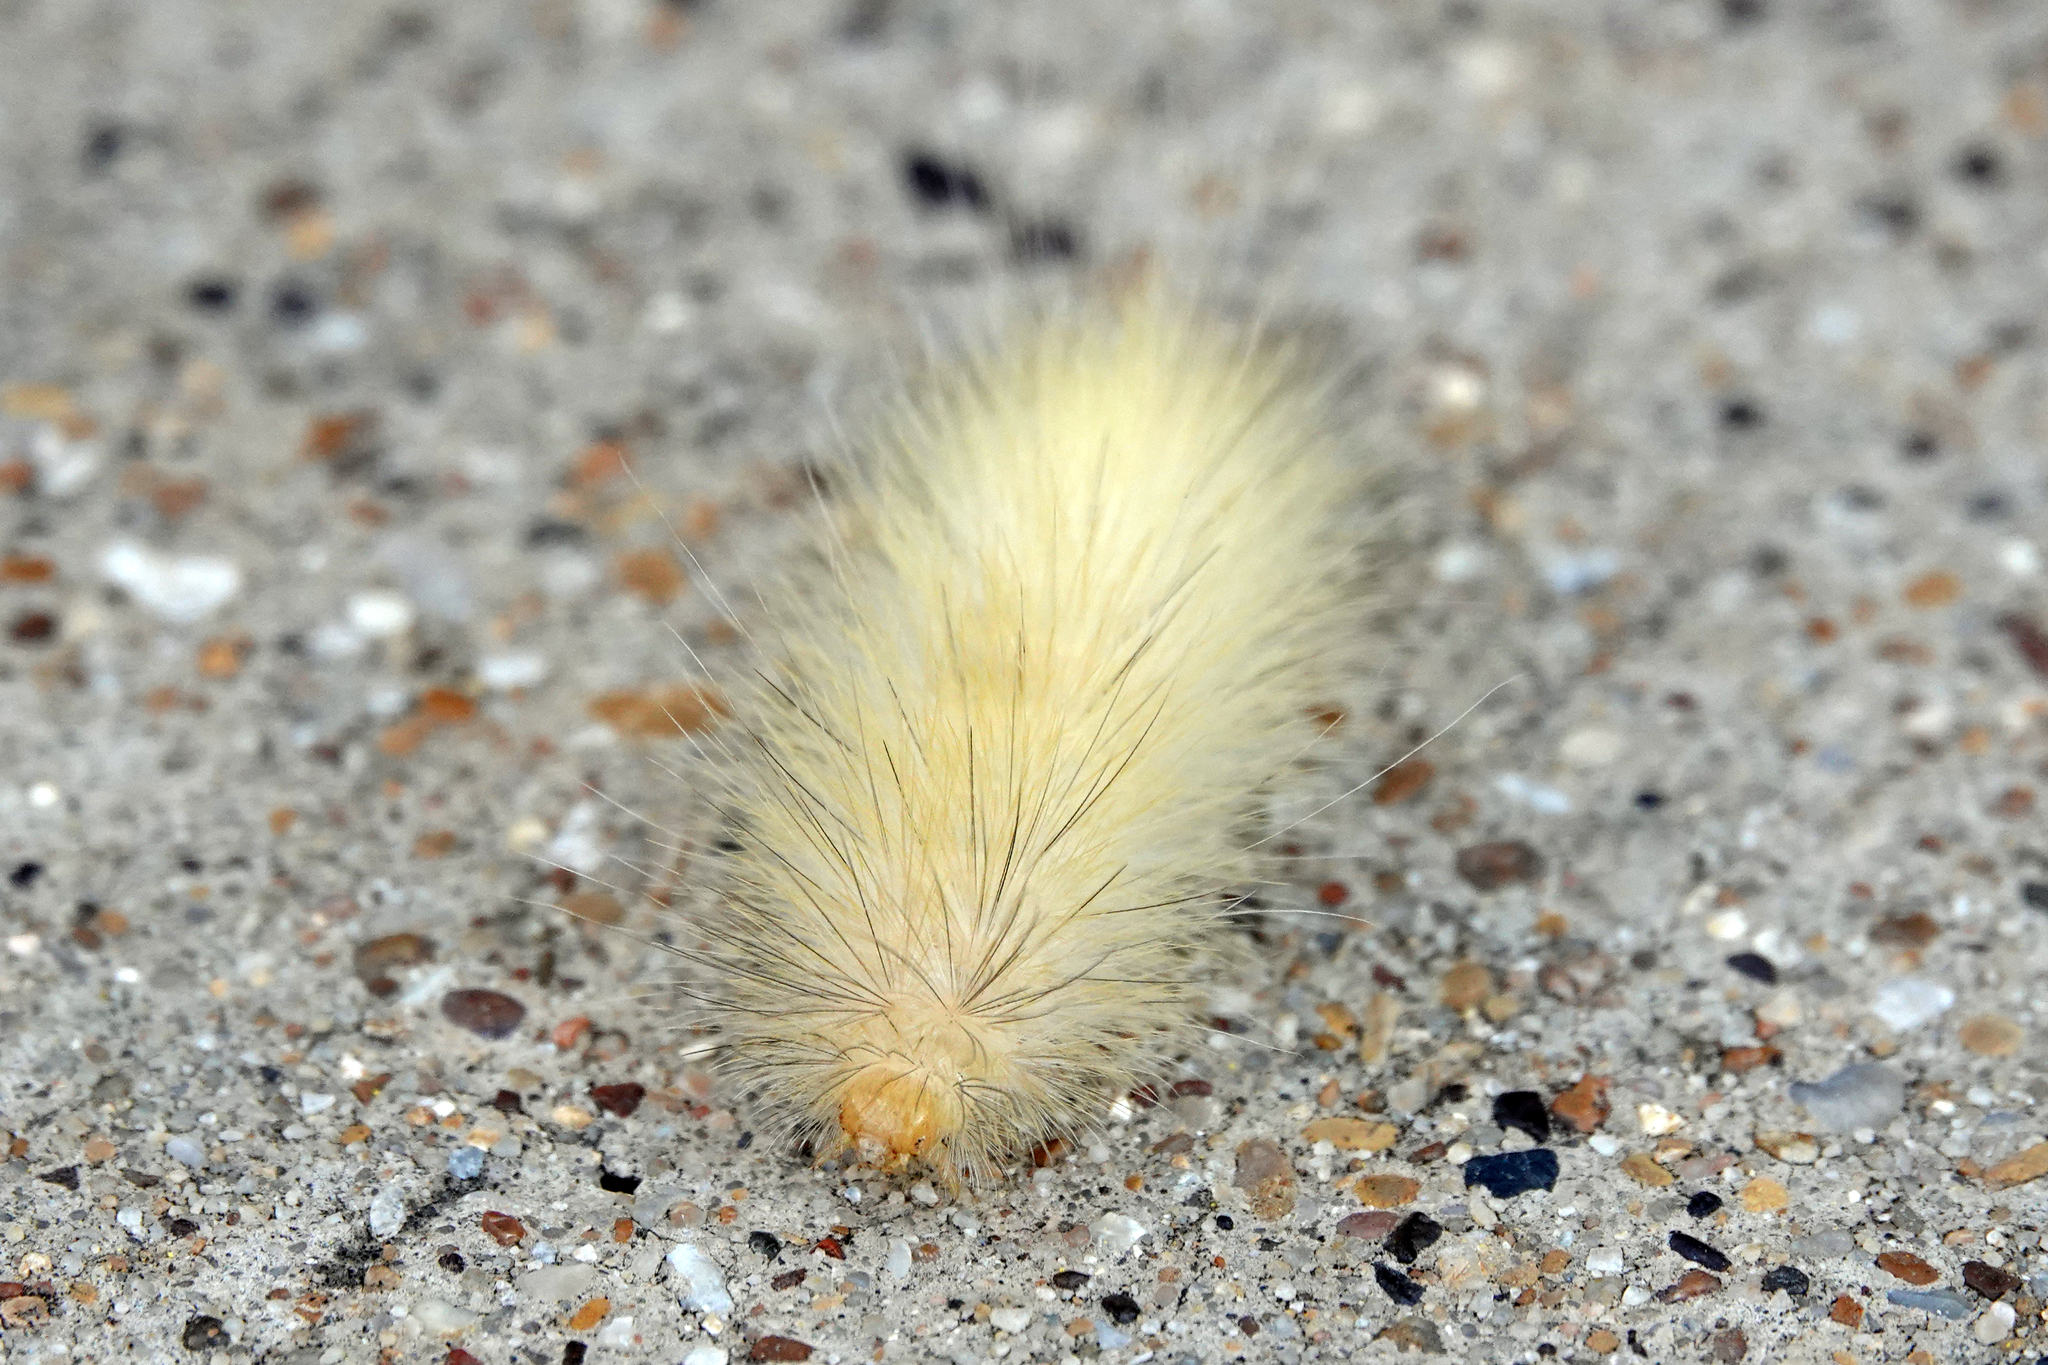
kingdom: Animalia
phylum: Arthropoda
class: Insecta
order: Lepidoptera
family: Erebidae
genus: Spilosoma
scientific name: Spilosoma virginica
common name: Virginia tiger moth
